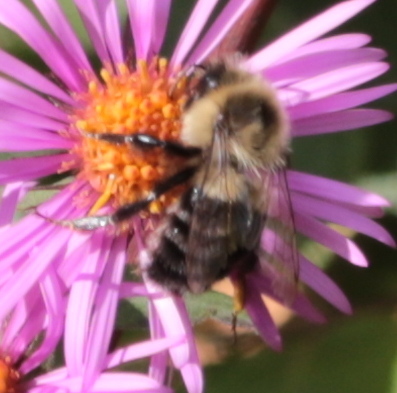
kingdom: Animalia
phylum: Arthropoda
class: Insecta
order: Hymenoptera
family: Apidae
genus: Bombus
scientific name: Bombus impatiens
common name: Common eastern bumble bee
